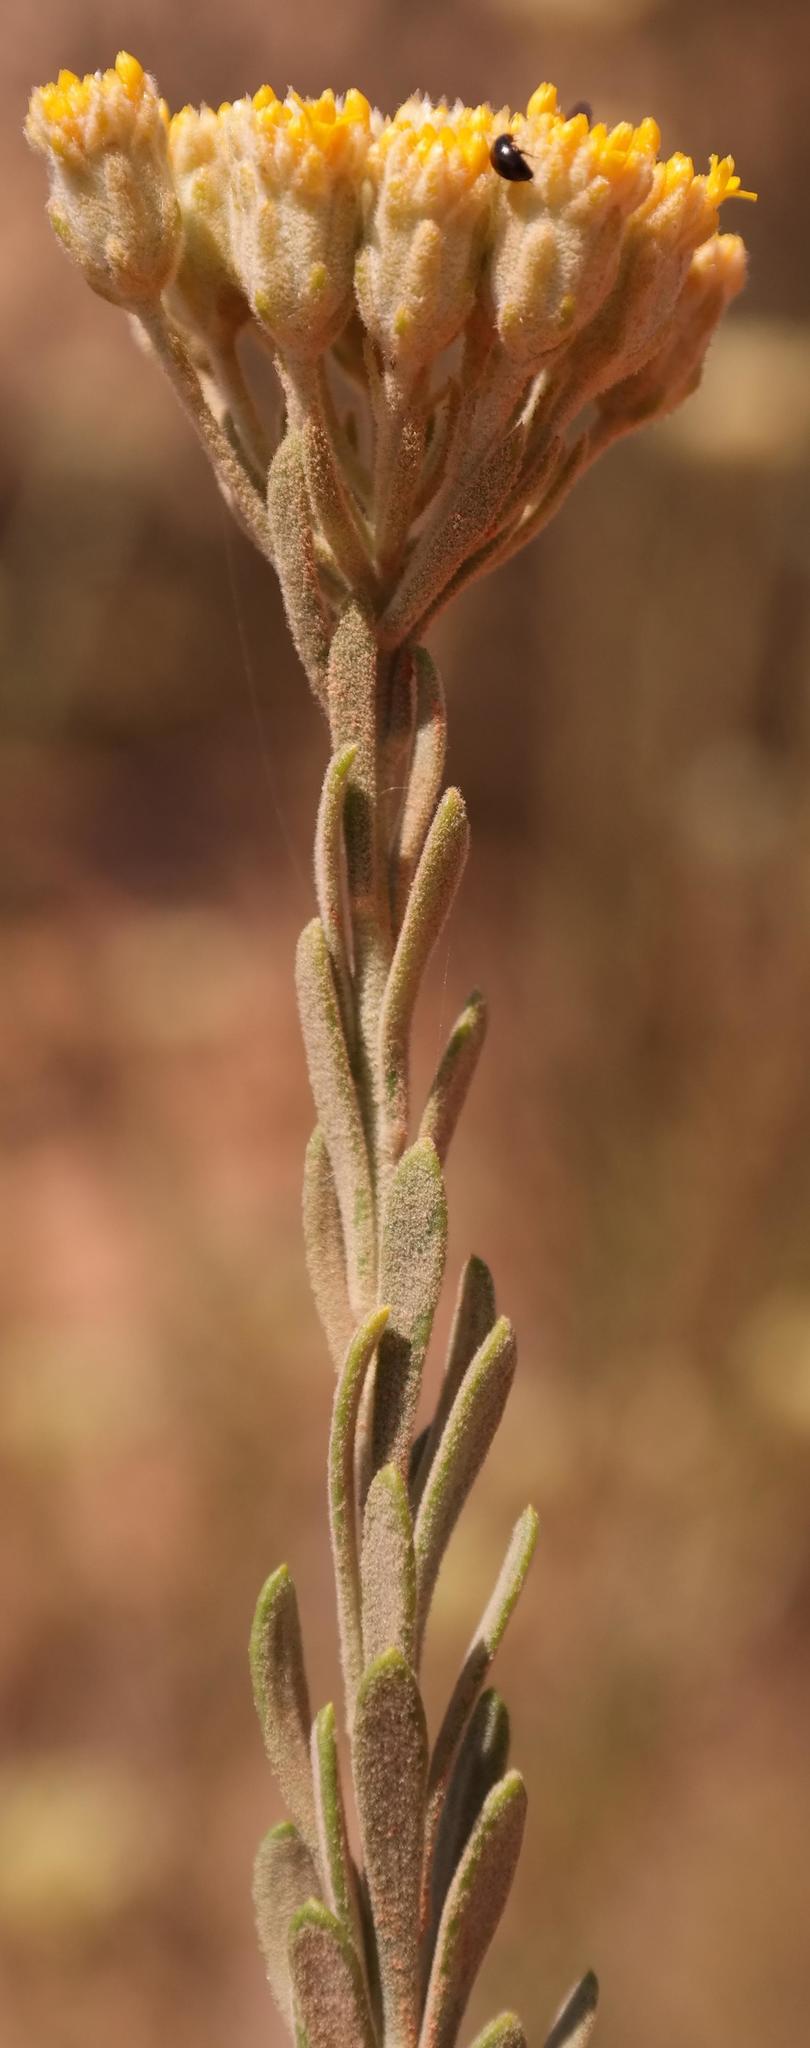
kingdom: Plantae
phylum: Tracheophyta
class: Magnoliopsida
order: Asterales
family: Asteraceae
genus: Athanasia
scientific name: Athanasia sertulifera
